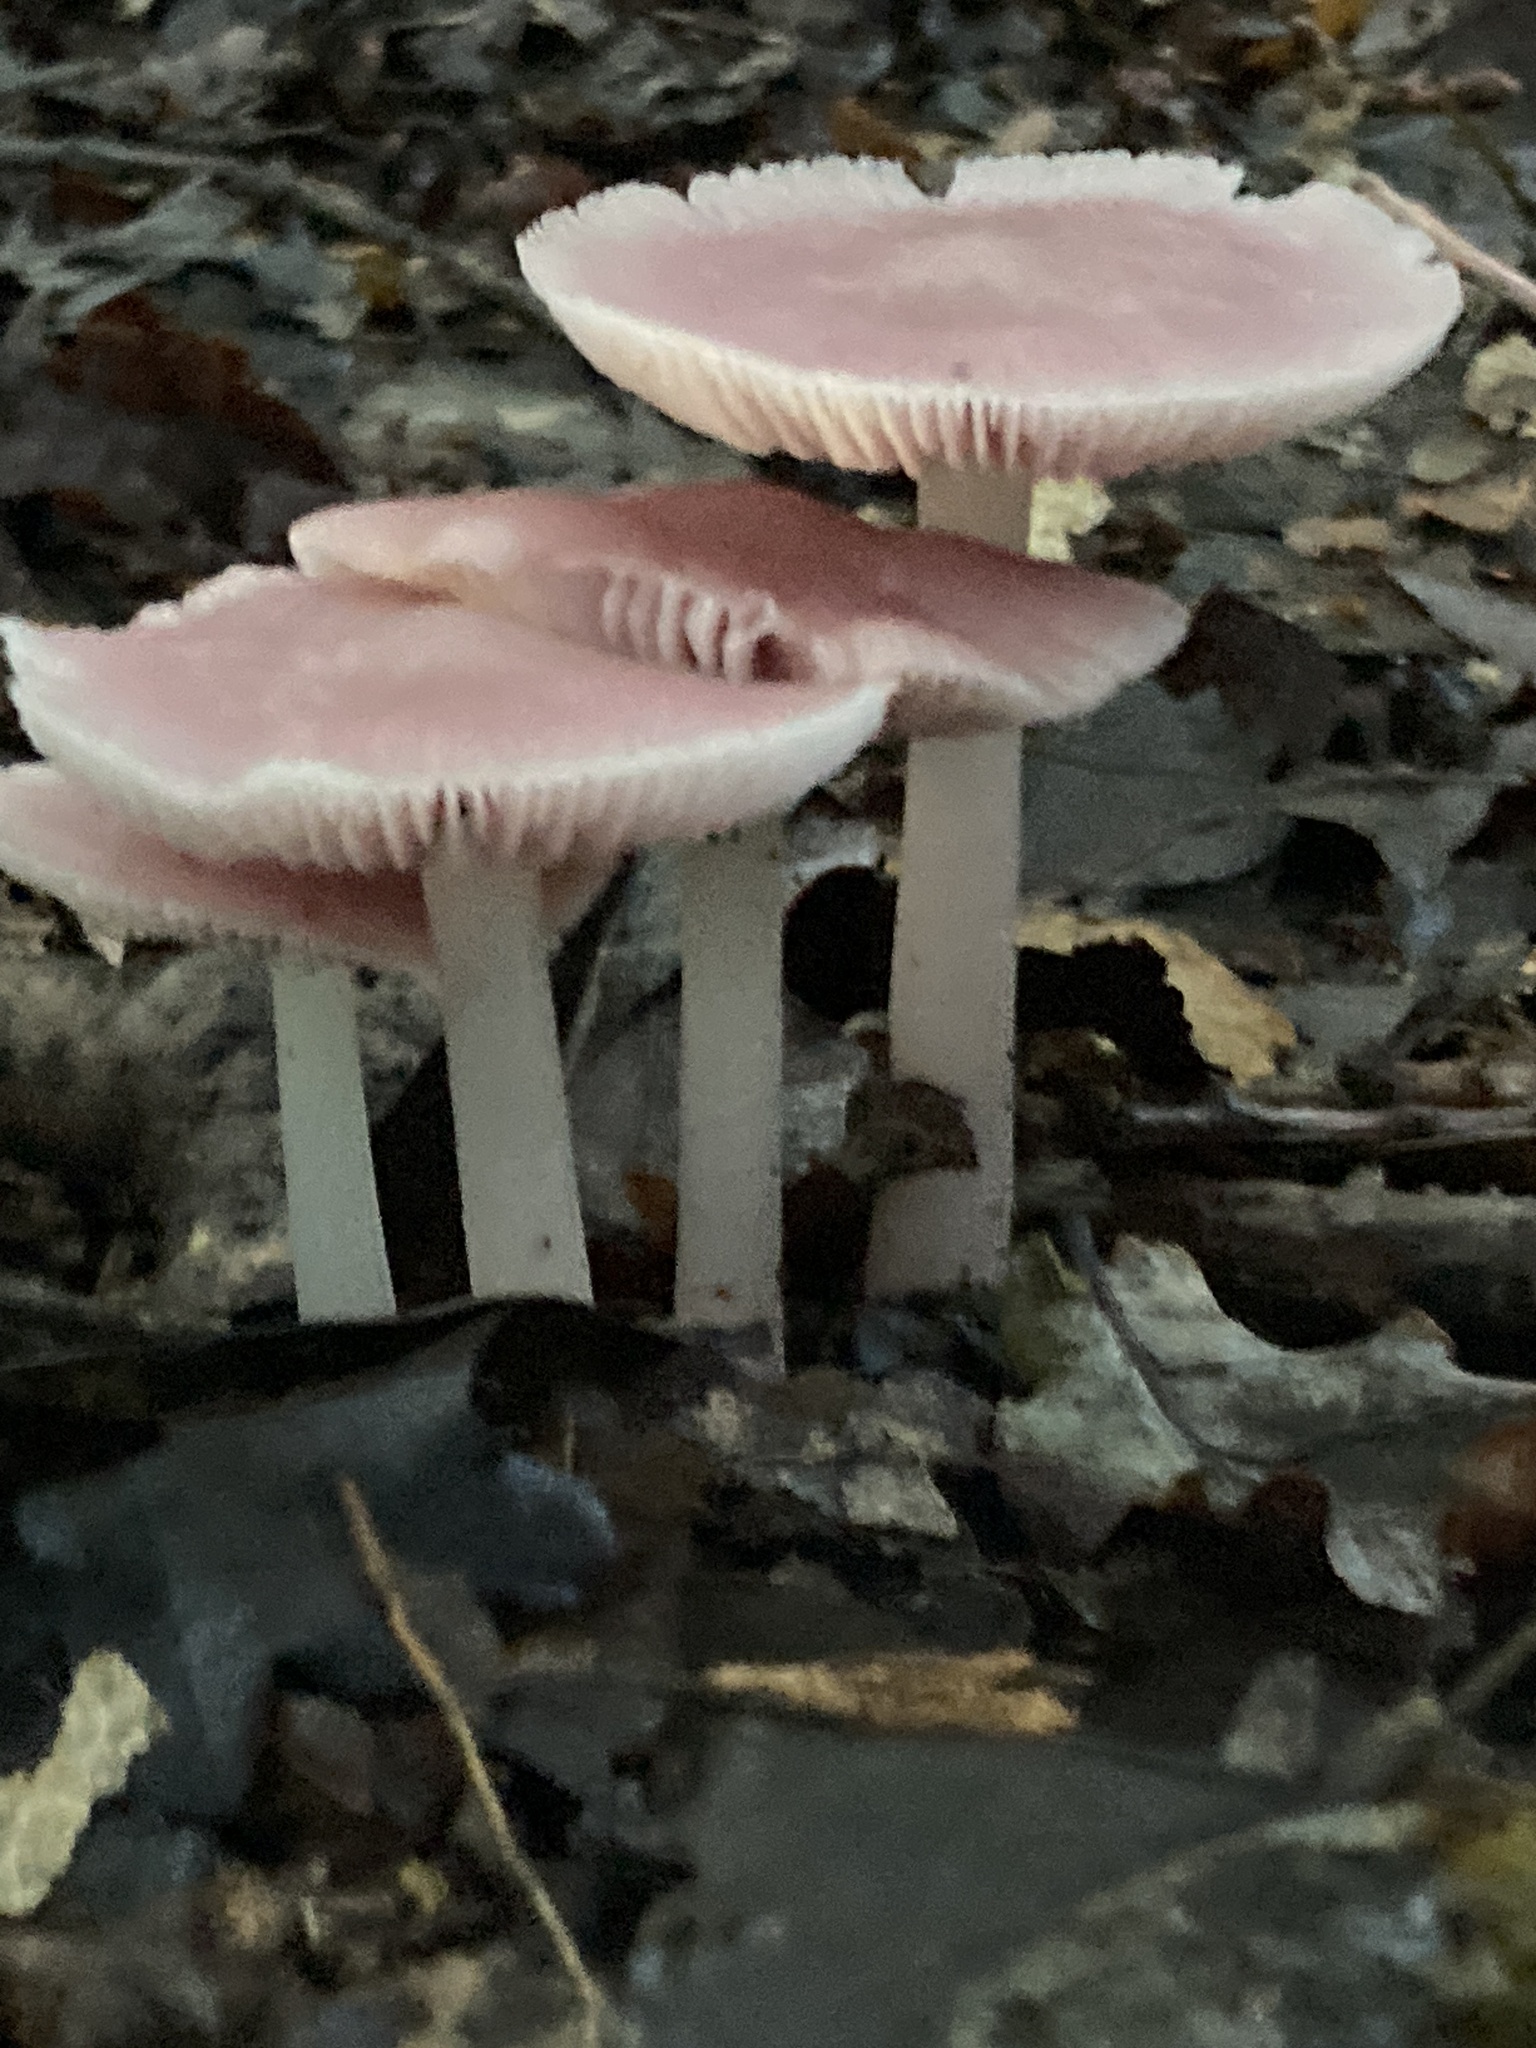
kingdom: Fungi
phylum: Basidiomycota
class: Agaricomycetes
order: Agaricales
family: Mycenaceae
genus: Mycena
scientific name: Mycena rosea
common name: Rosy bonnet
